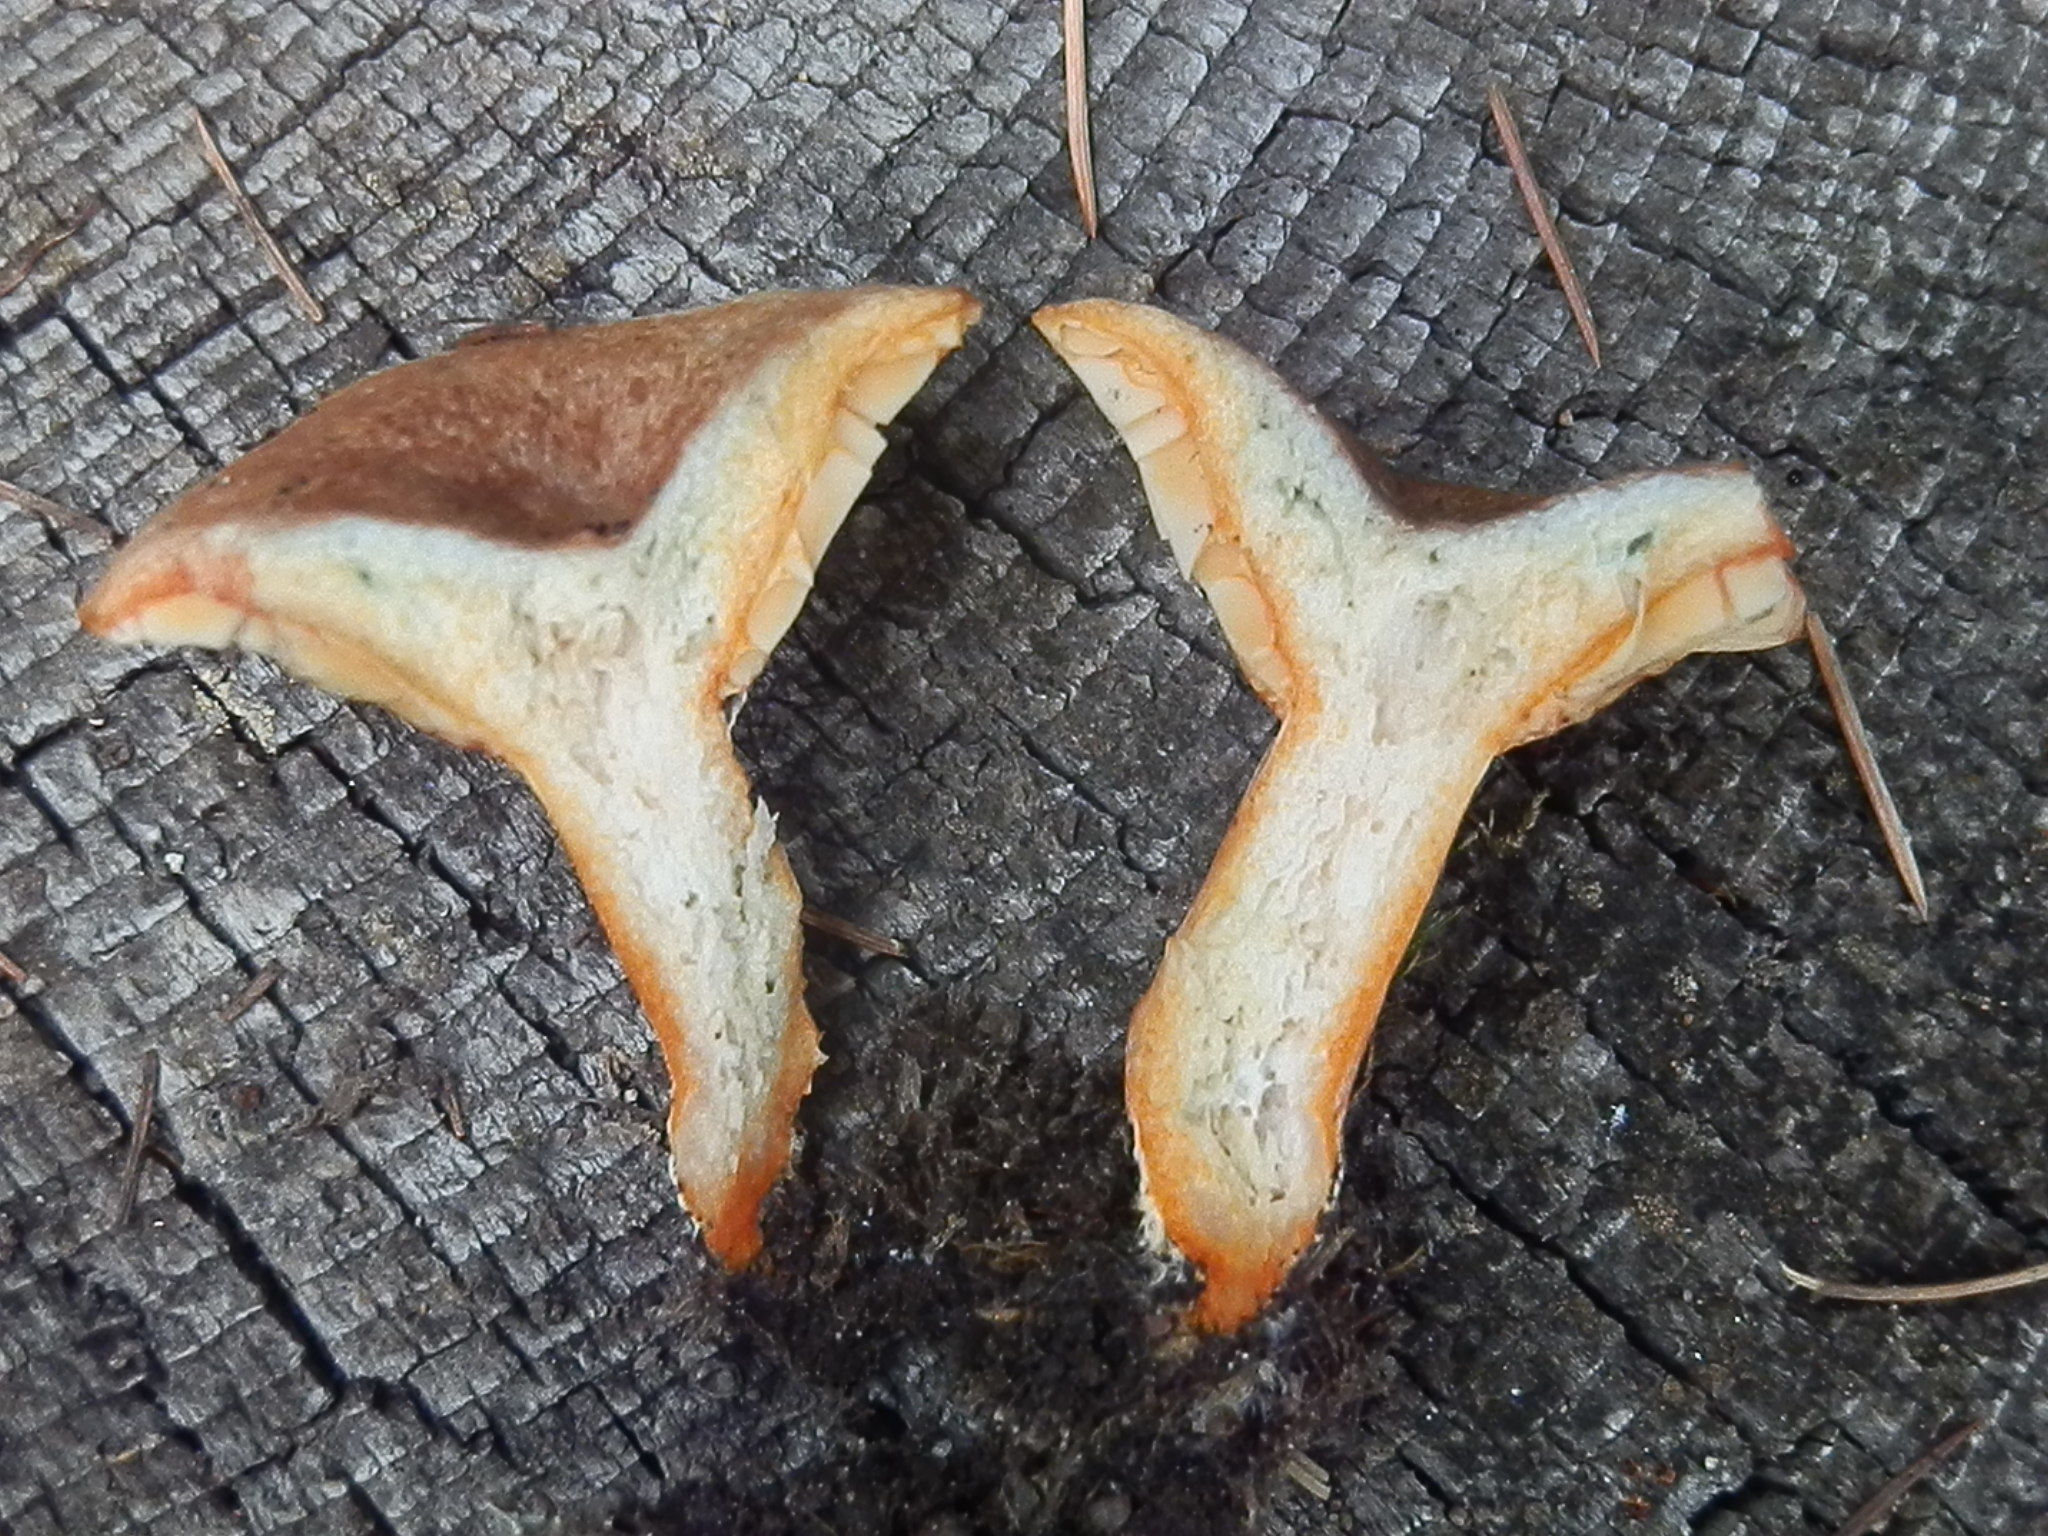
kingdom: Fungi
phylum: Basidiomycota
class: Agaricomycetes
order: Russulales
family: Russulaceae
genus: Lactarius
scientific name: Lactarius deterrimus
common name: False saffron milkcap
